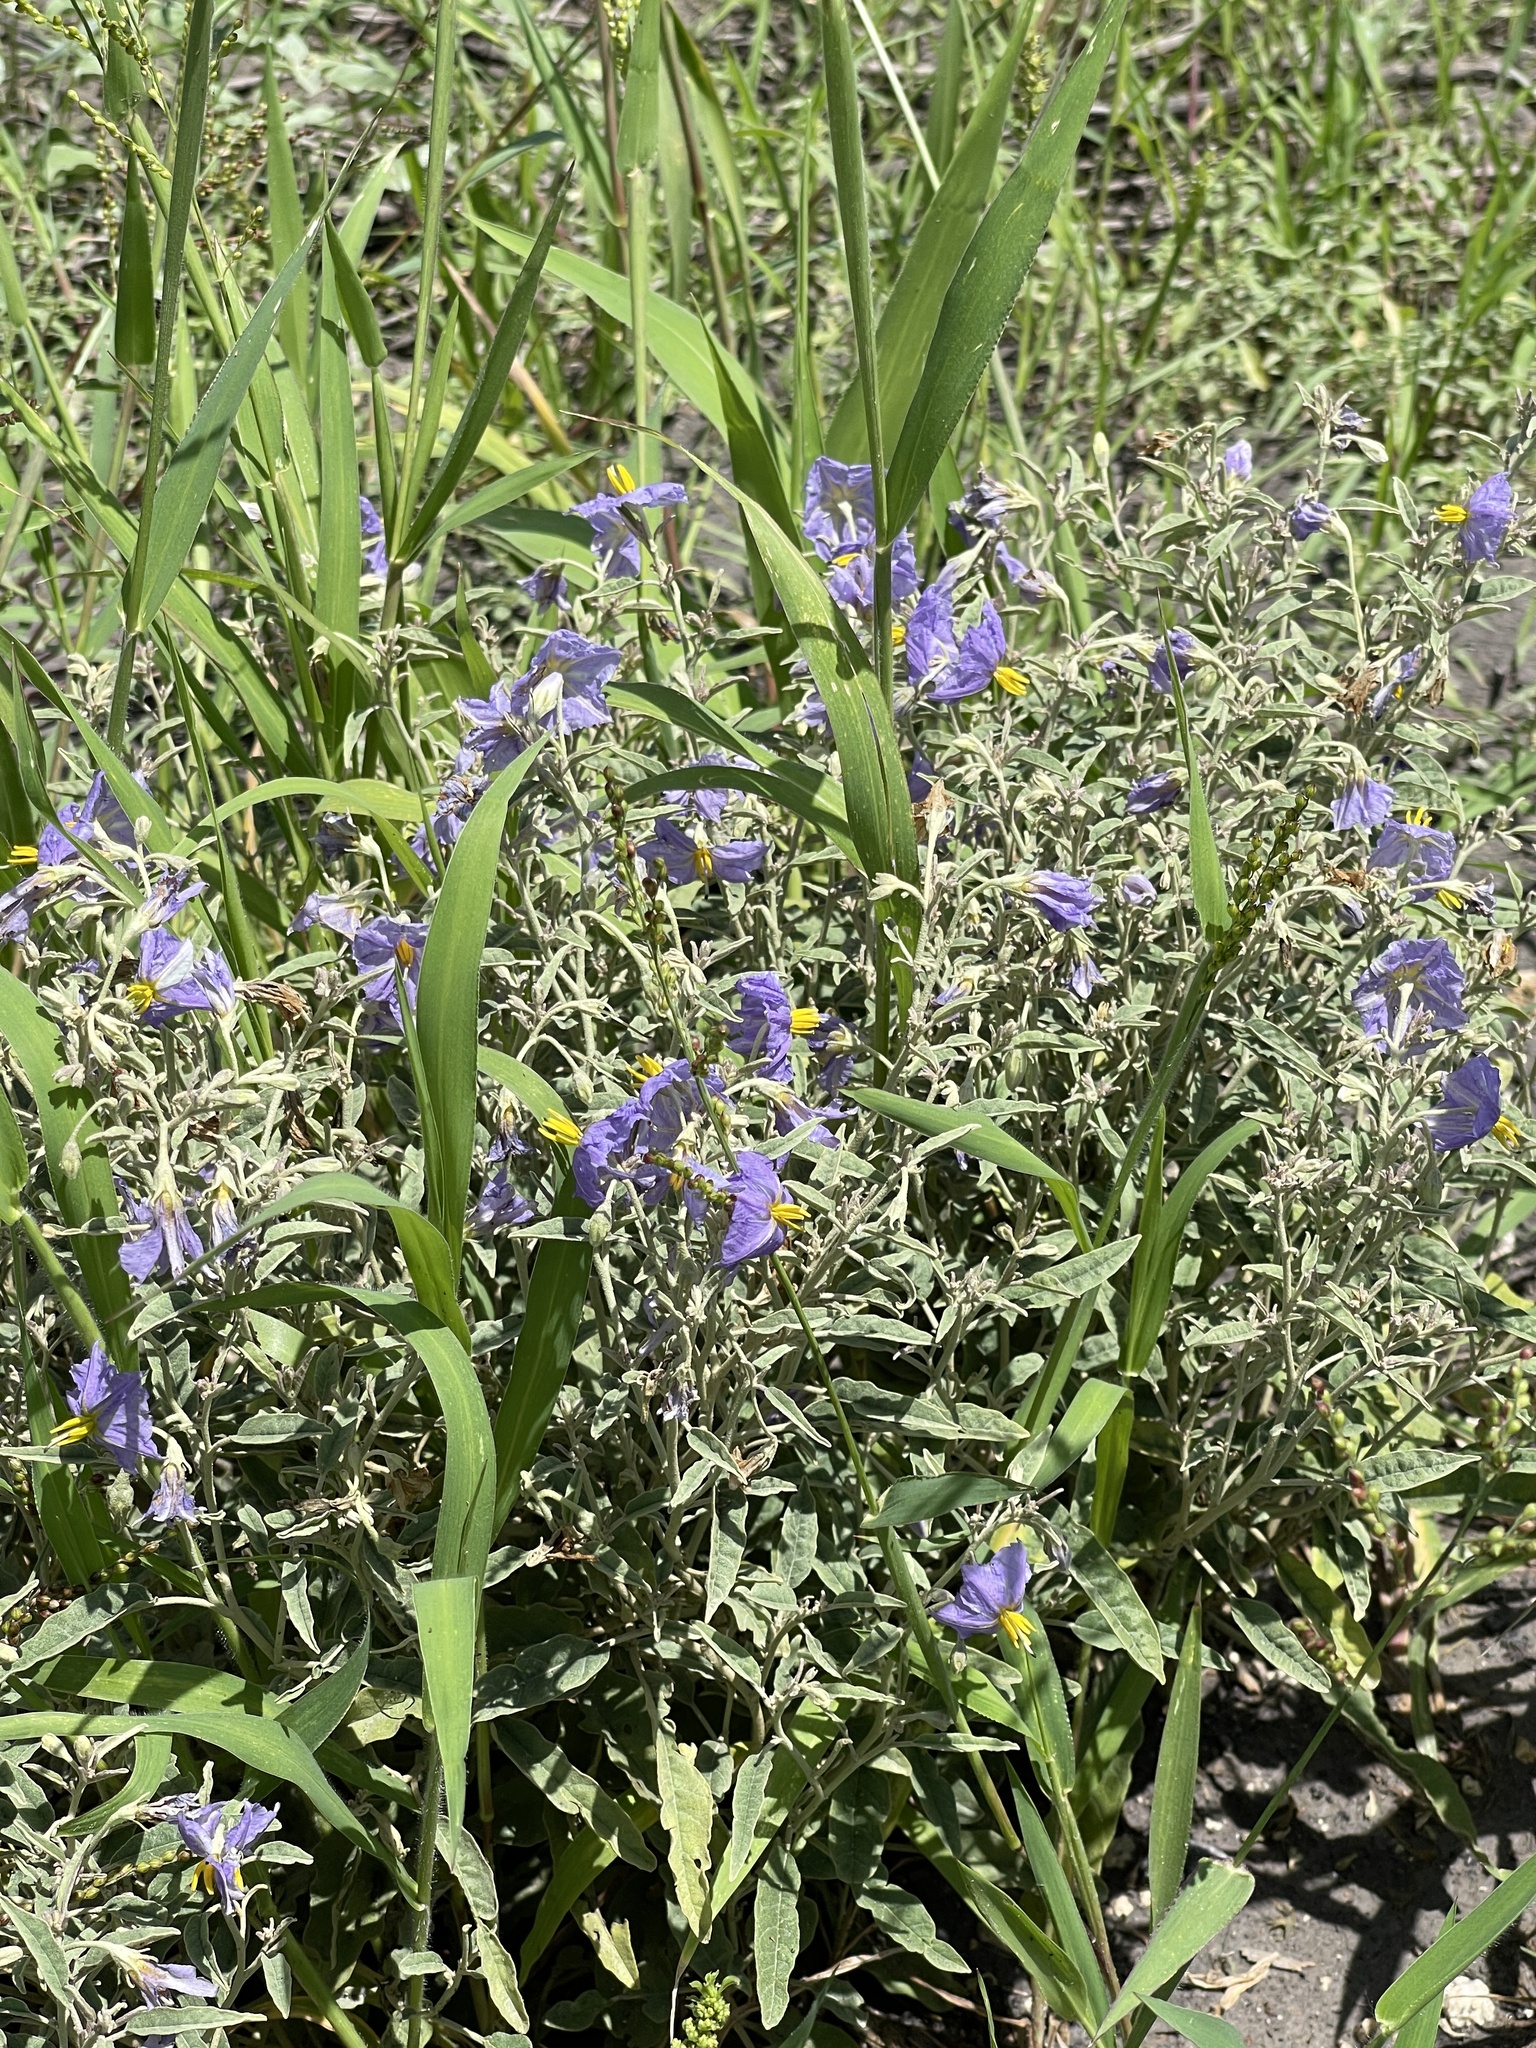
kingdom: Plantae
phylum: Tracheophyta
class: Magnoliopsida
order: Solanales
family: Solanaceae
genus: Solanum
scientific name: Solanum elaeagnifolium
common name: Silverleaf nightshade
